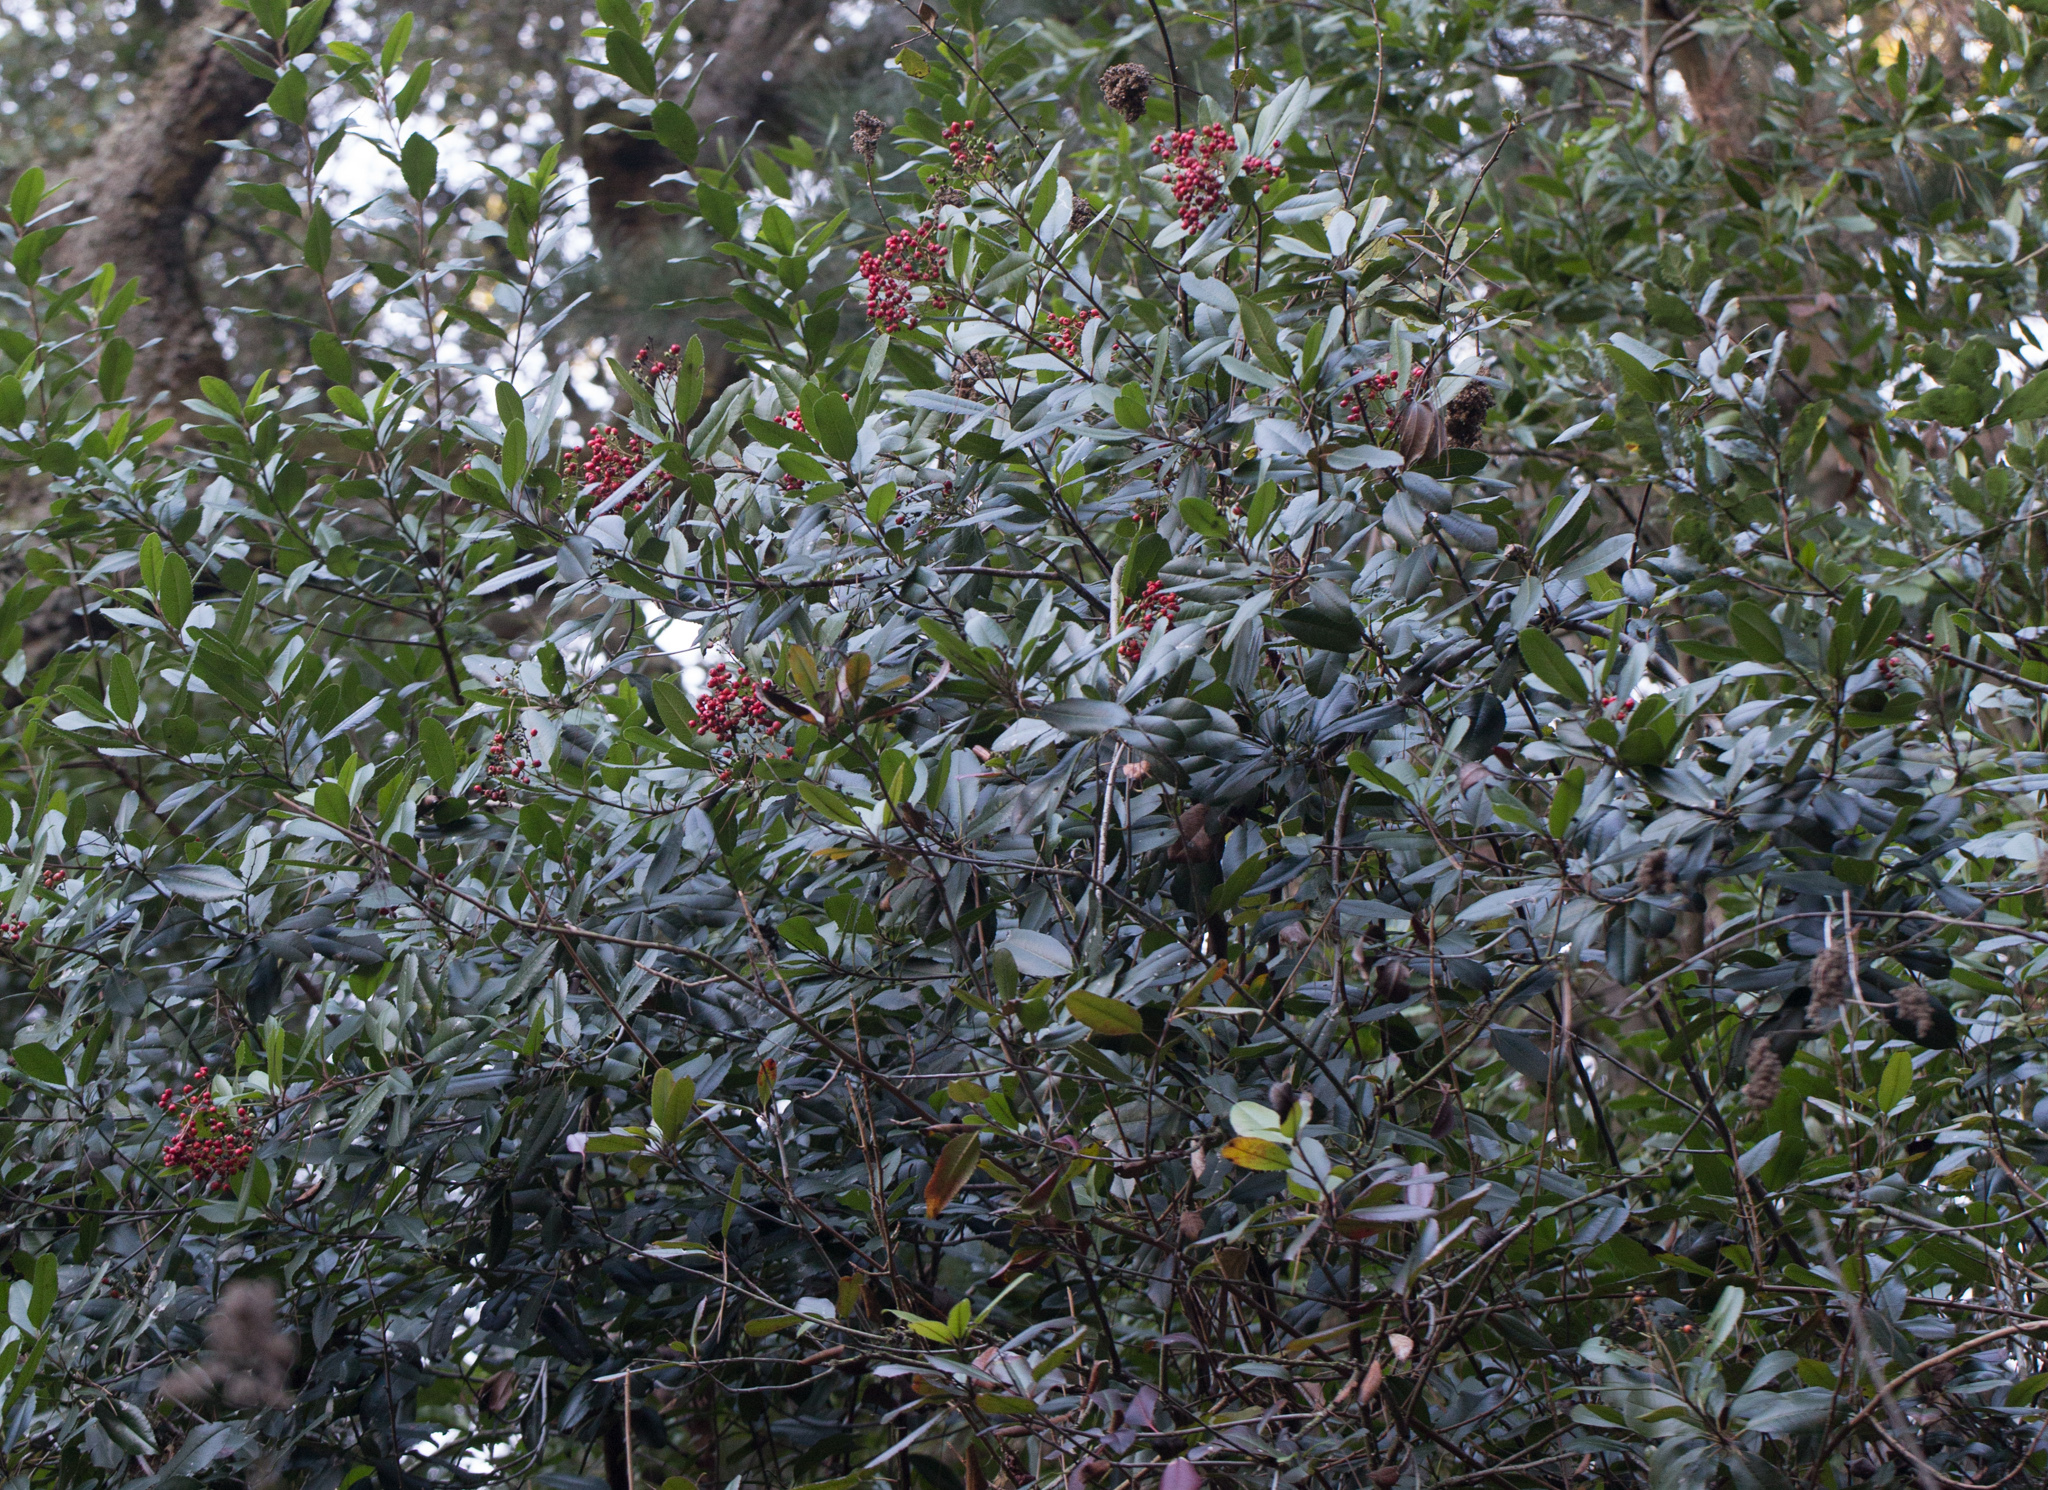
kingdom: Plantae
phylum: Tracheophyta
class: Magnoliopsida
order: Rosales
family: Rosaceae
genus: Heteromeles
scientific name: Heteromeles arbutifolia
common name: California-holly
